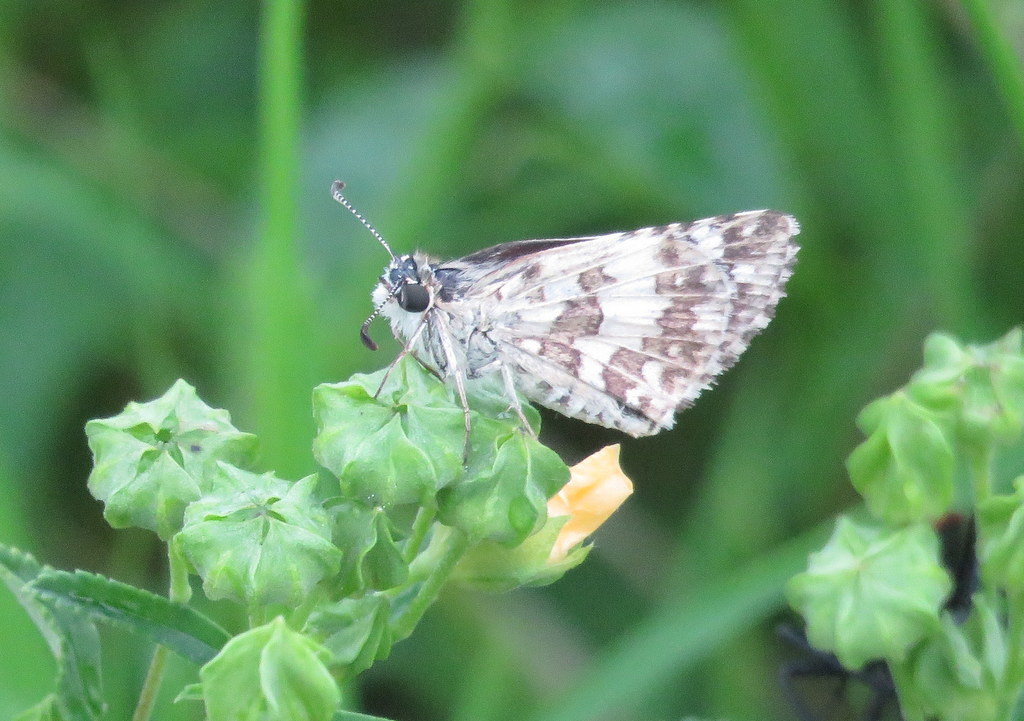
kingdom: Animalia
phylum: Arthropoda
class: Insecta
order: Lepidoptera
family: Hesperiidae
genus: Burnsius
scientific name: Burnsius orcynoides
